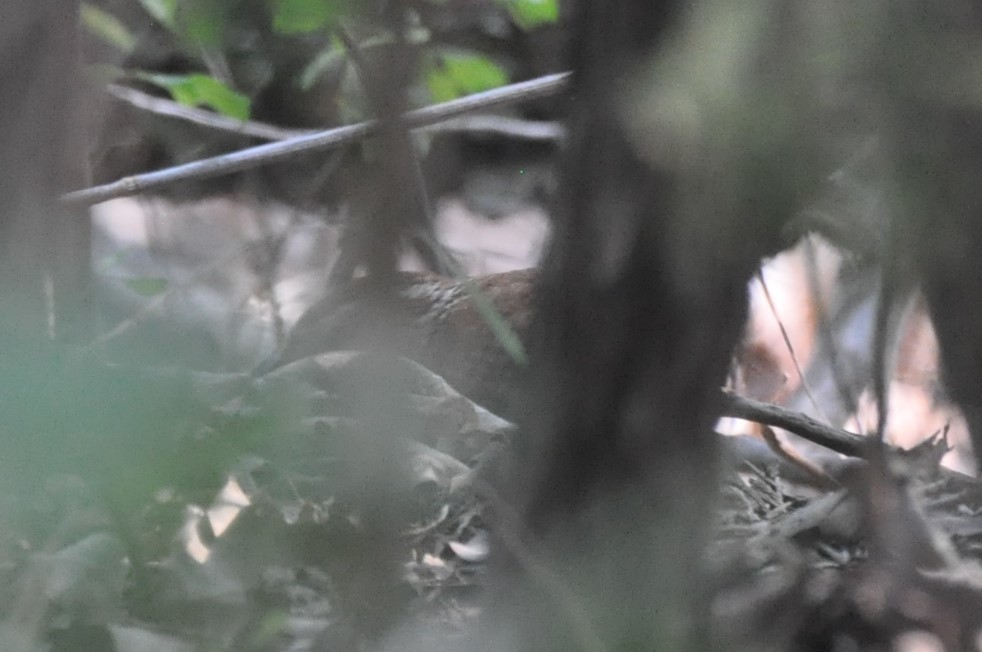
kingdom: Animalia
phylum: Chordata
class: Aves
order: Passeriformes
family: Troglodytidae
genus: Thryothorus
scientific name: Thryothorus ludovicianus
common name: Carolina wren
